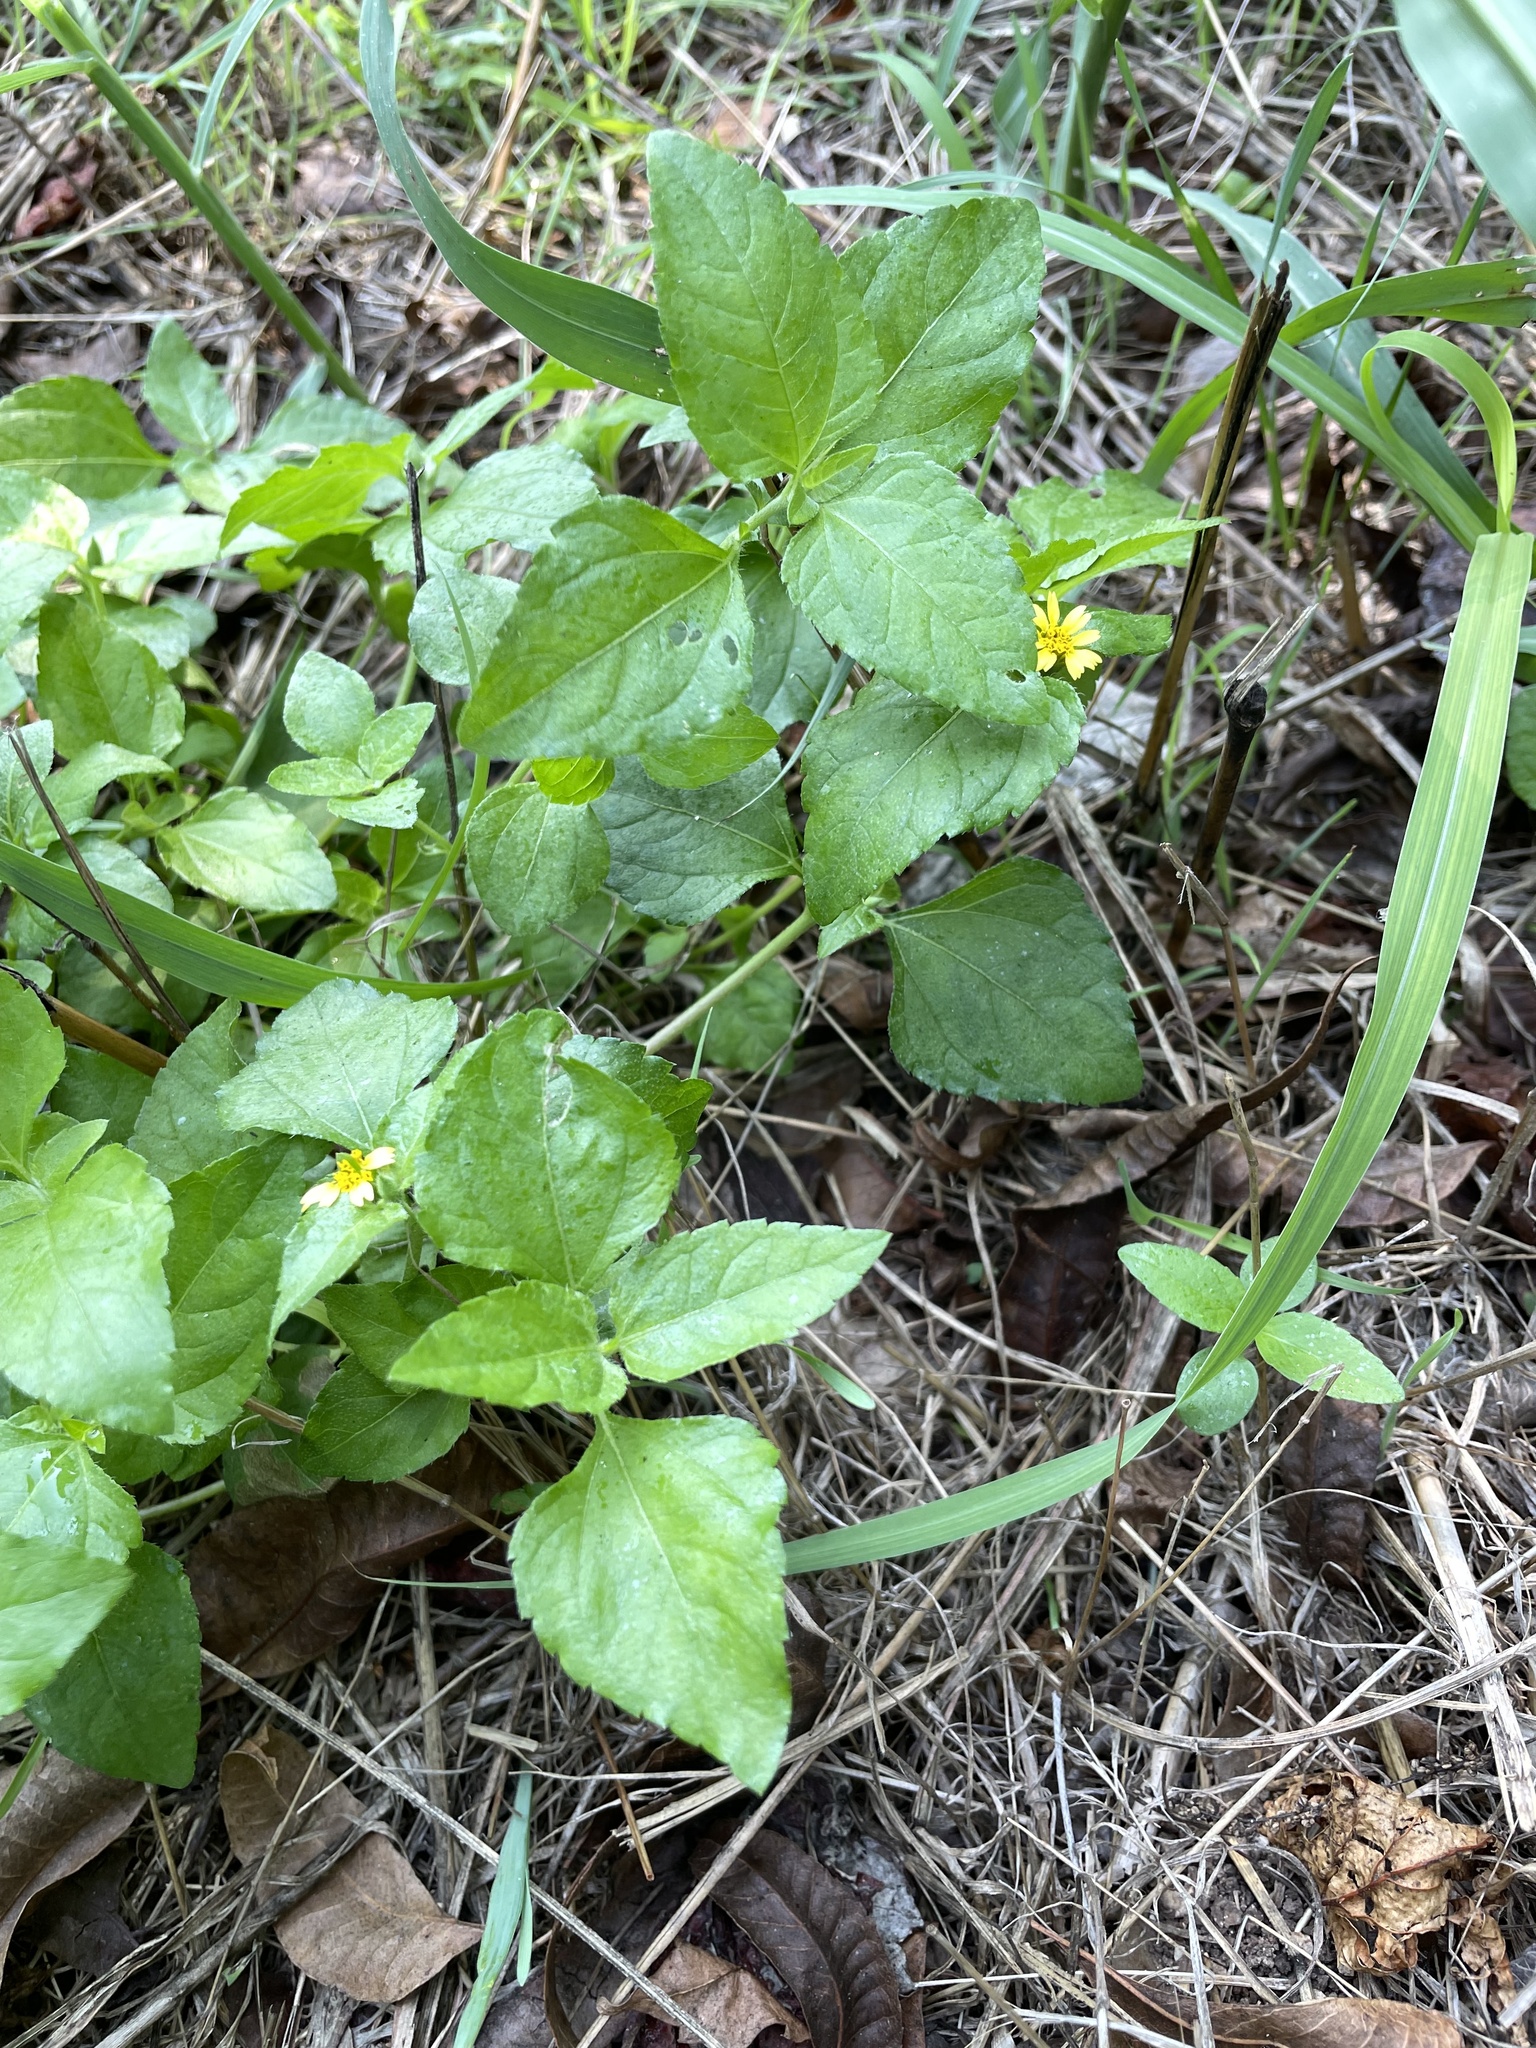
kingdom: Plantae
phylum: Tracheophyta
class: Magnoliopsida
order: Asterales
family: Asteraceae
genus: Calyptocarpus
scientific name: Calyptocarpus vialis
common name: Straggler daisy
